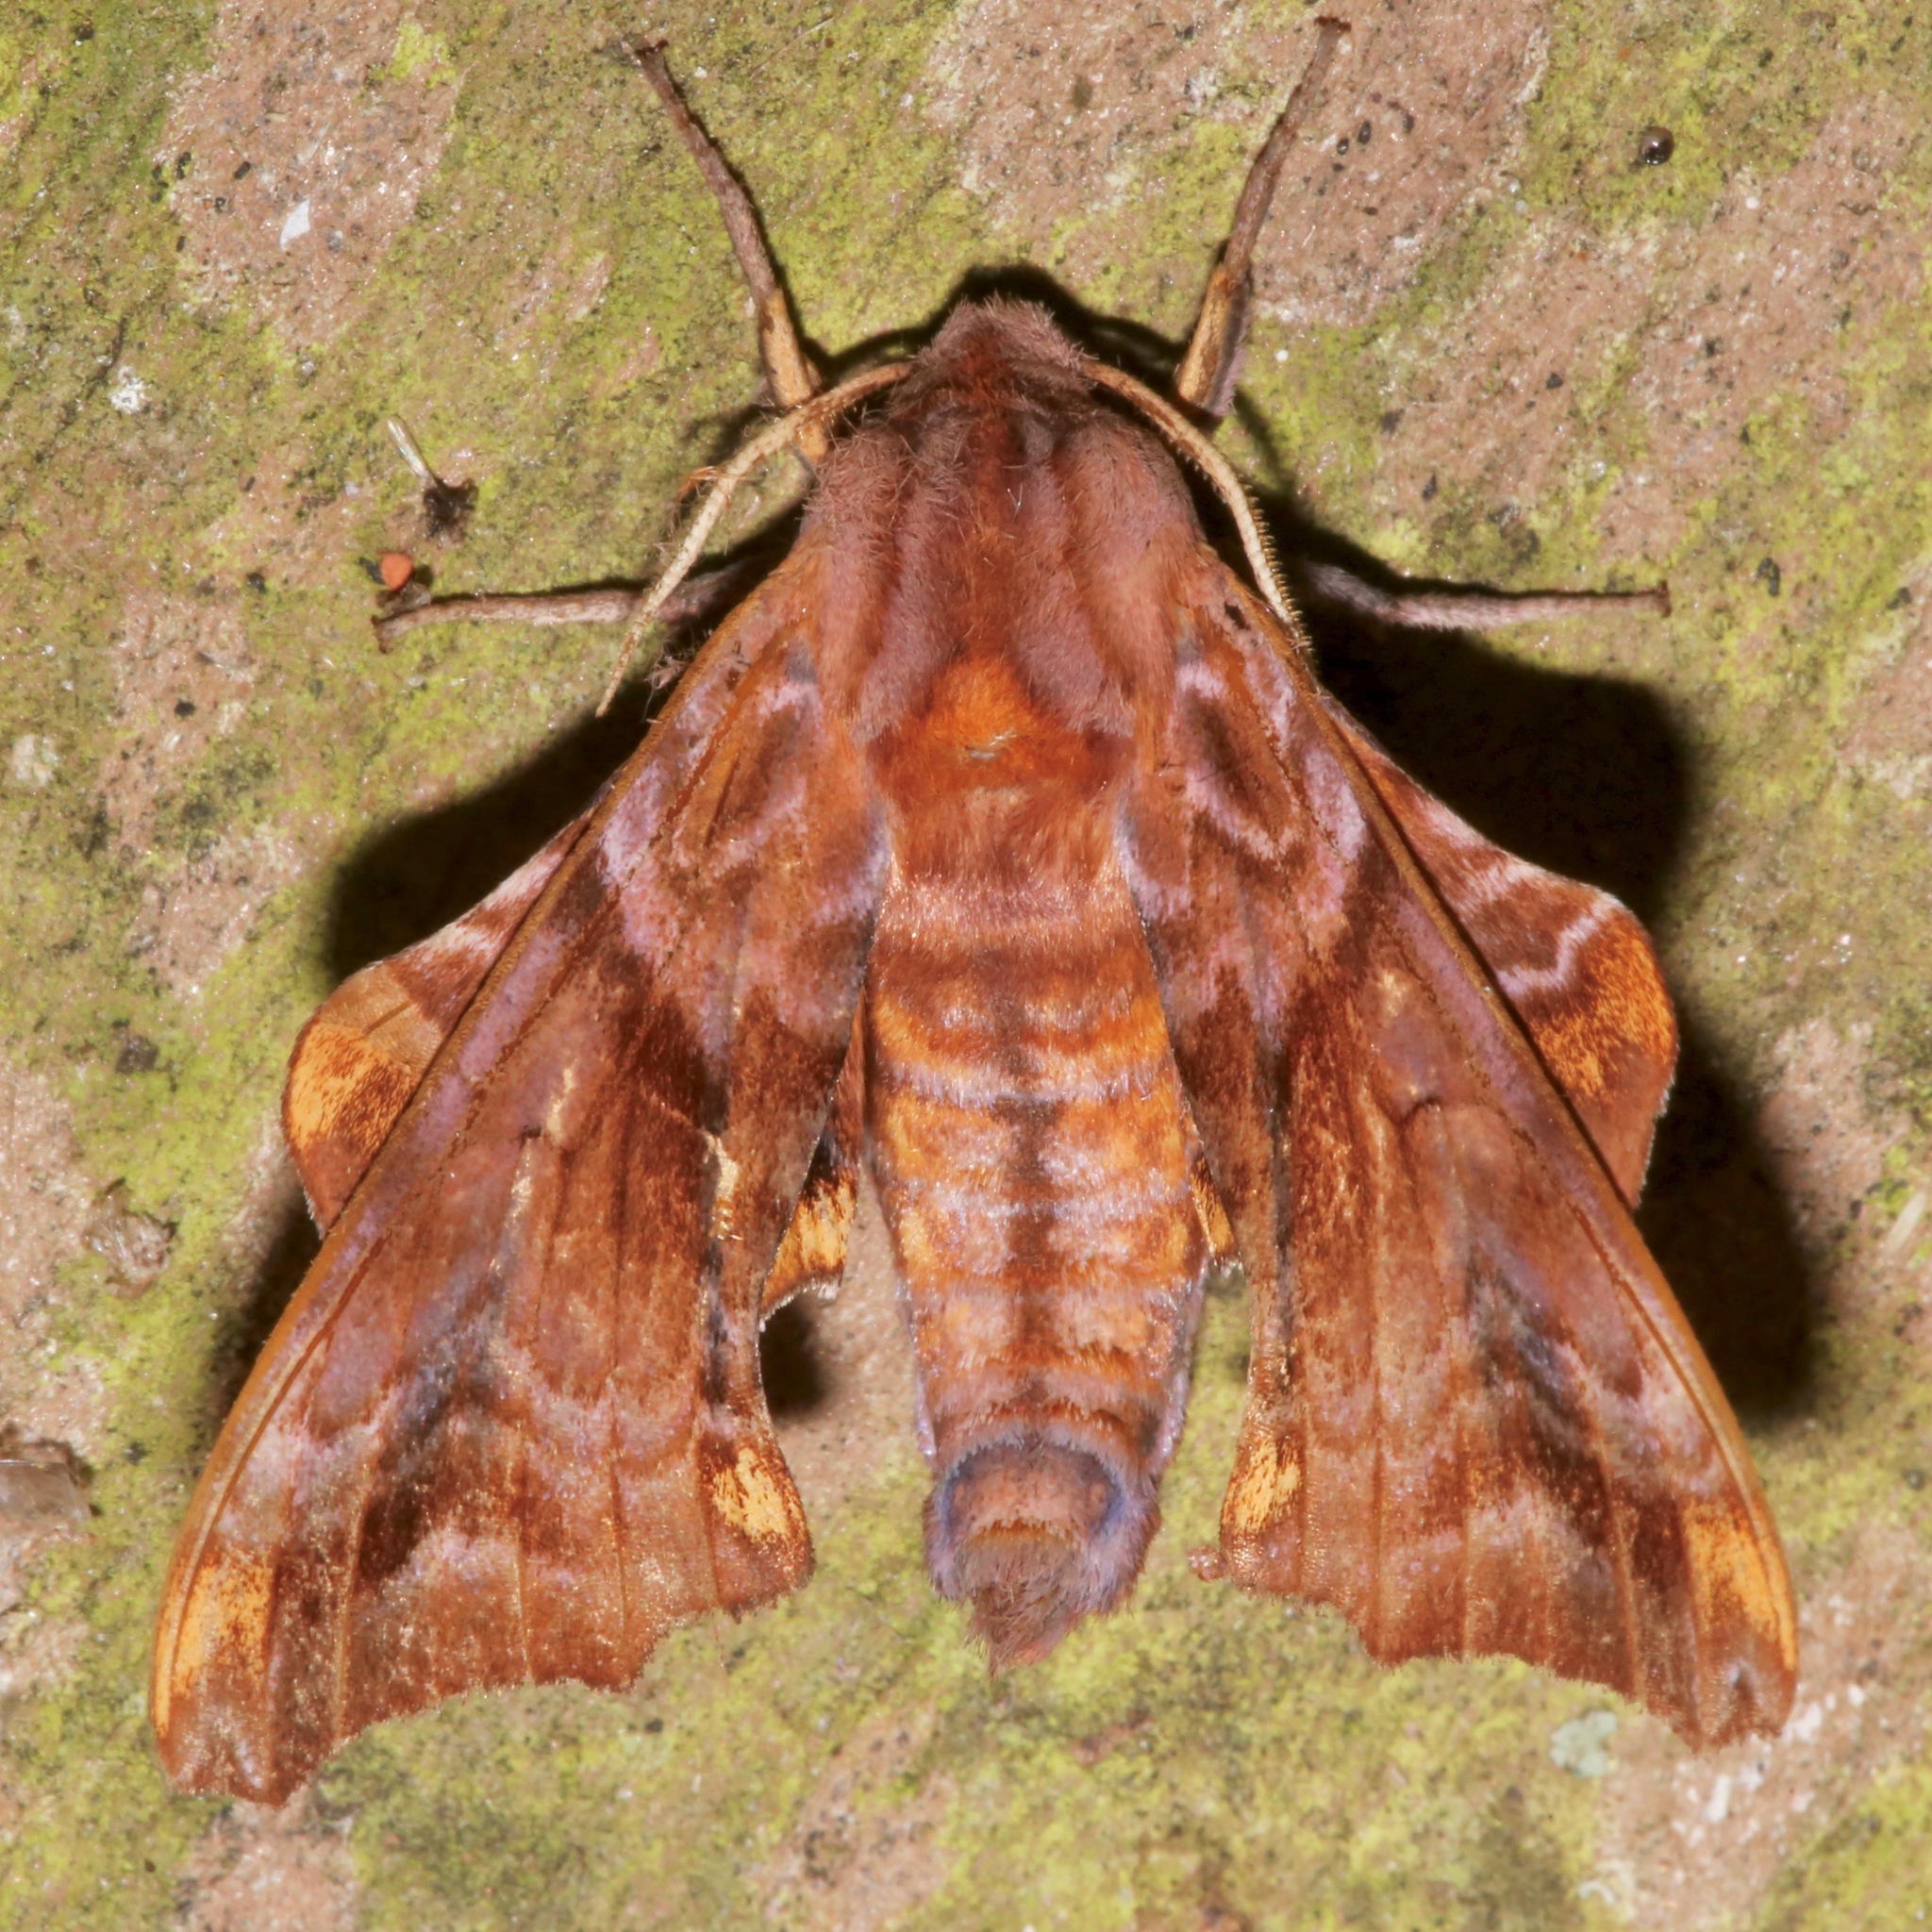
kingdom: Animalia
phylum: Arthropoda
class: Insecta
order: Lepidoptera
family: Sphingidae
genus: Paonias
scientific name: Paonias myops
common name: Small-eyed sphinx
